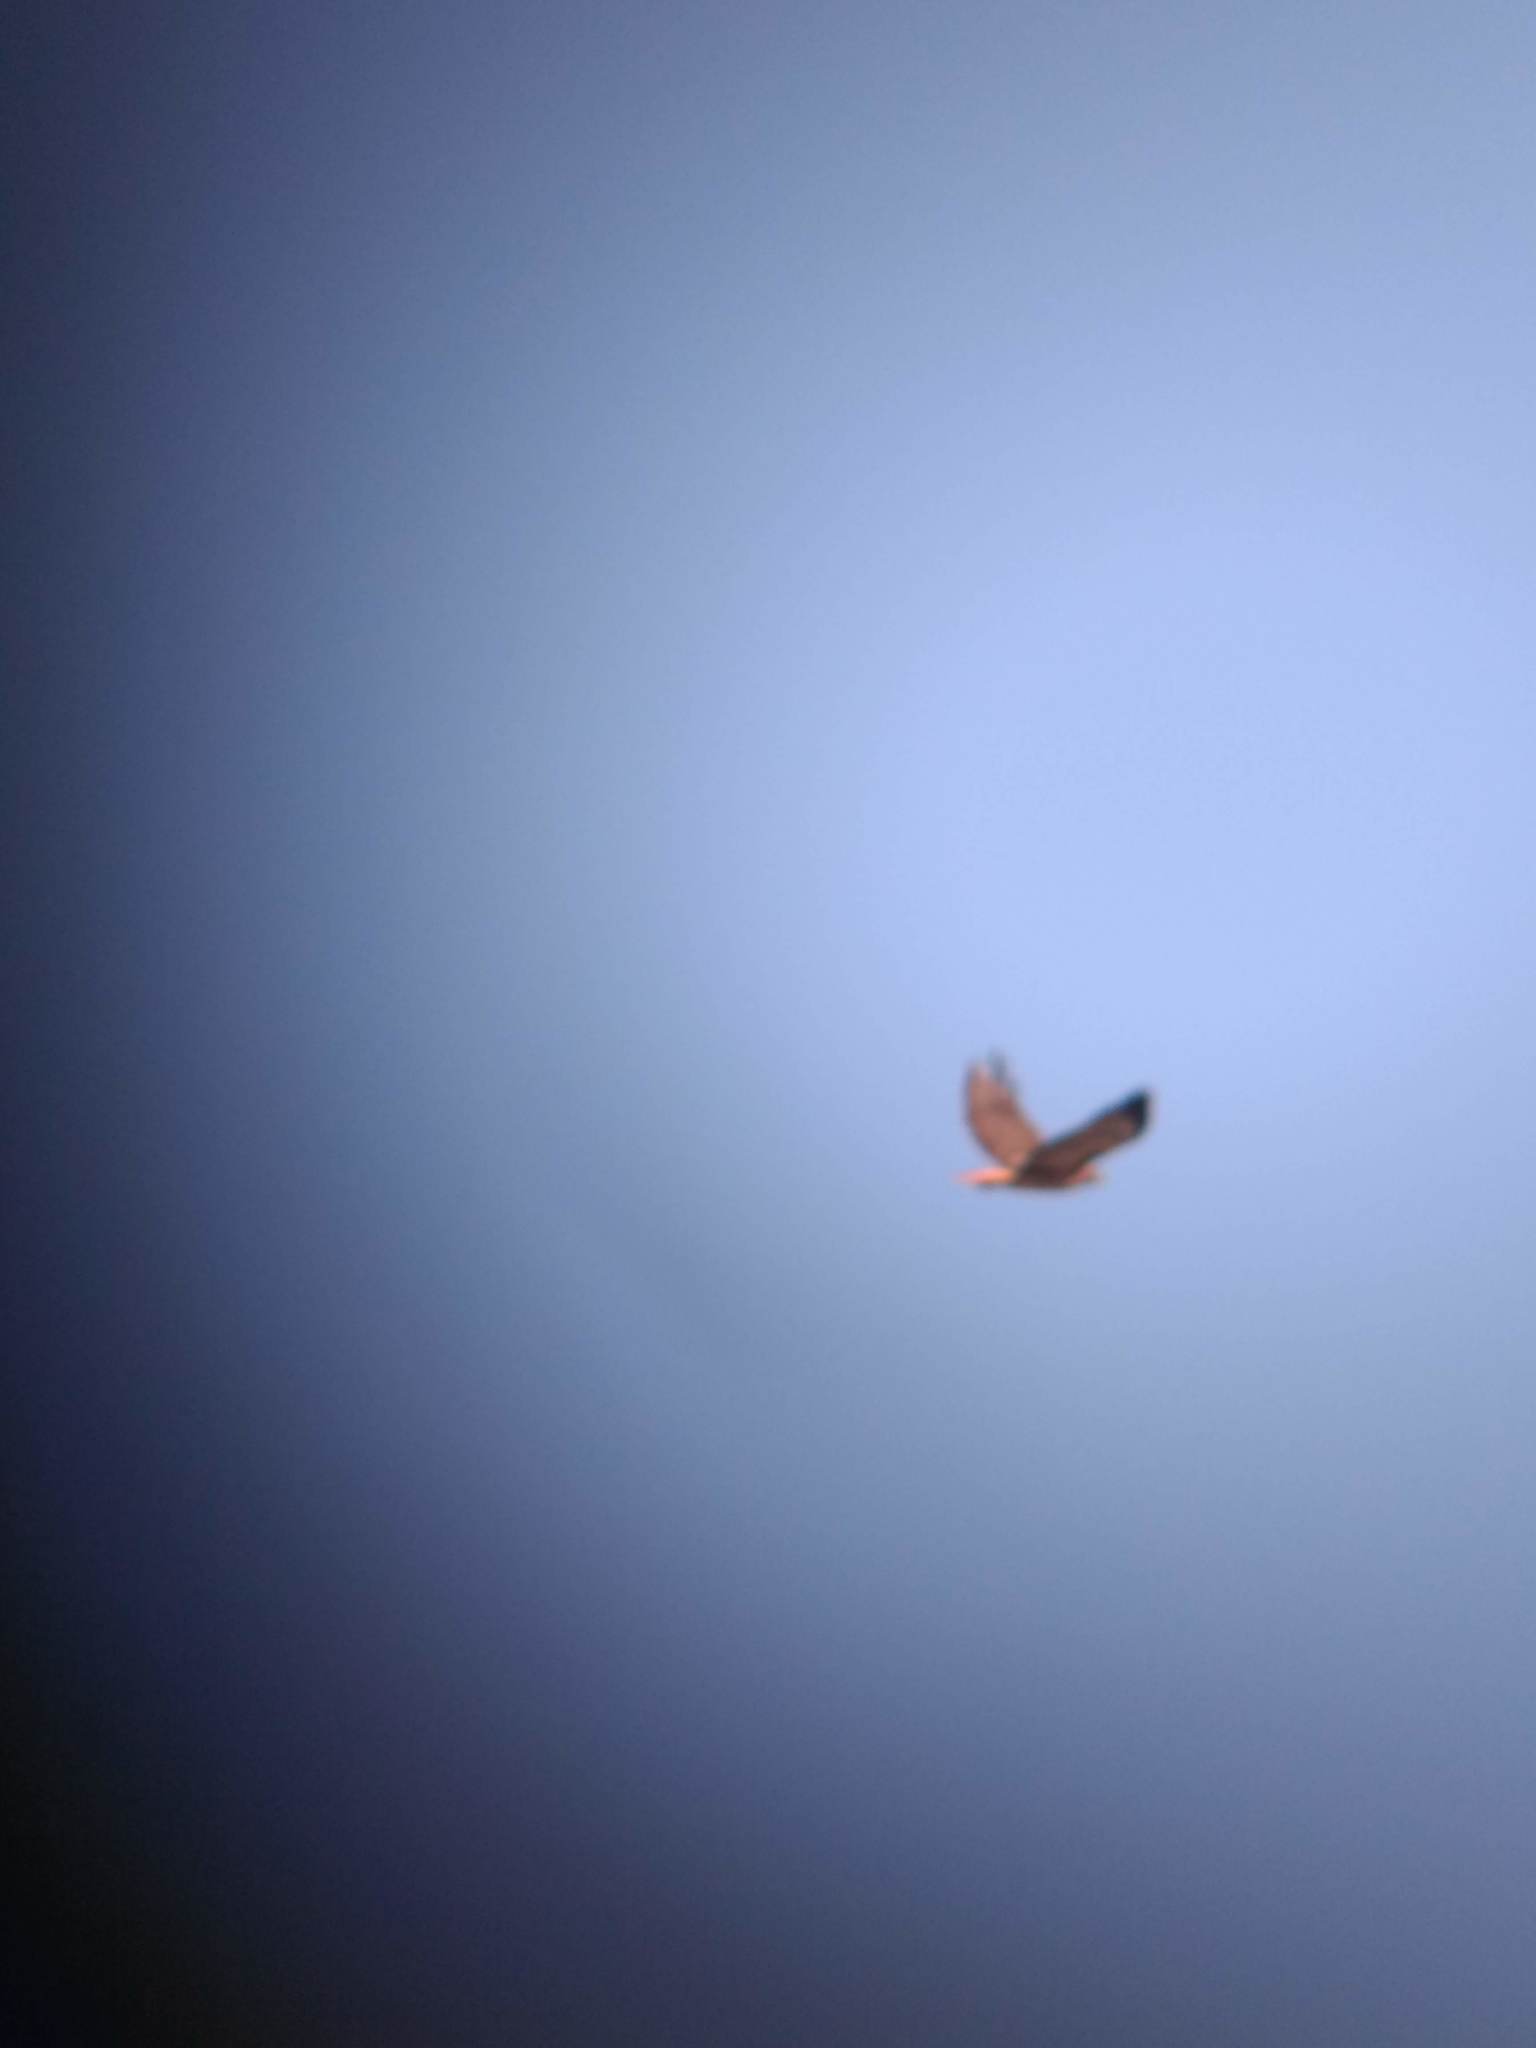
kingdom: Animalia
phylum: Chordata
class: Aves
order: Accipitriformes
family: Accipitridae
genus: Buteo
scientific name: Buteo jamaicensis
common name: Red-tailed hawk
